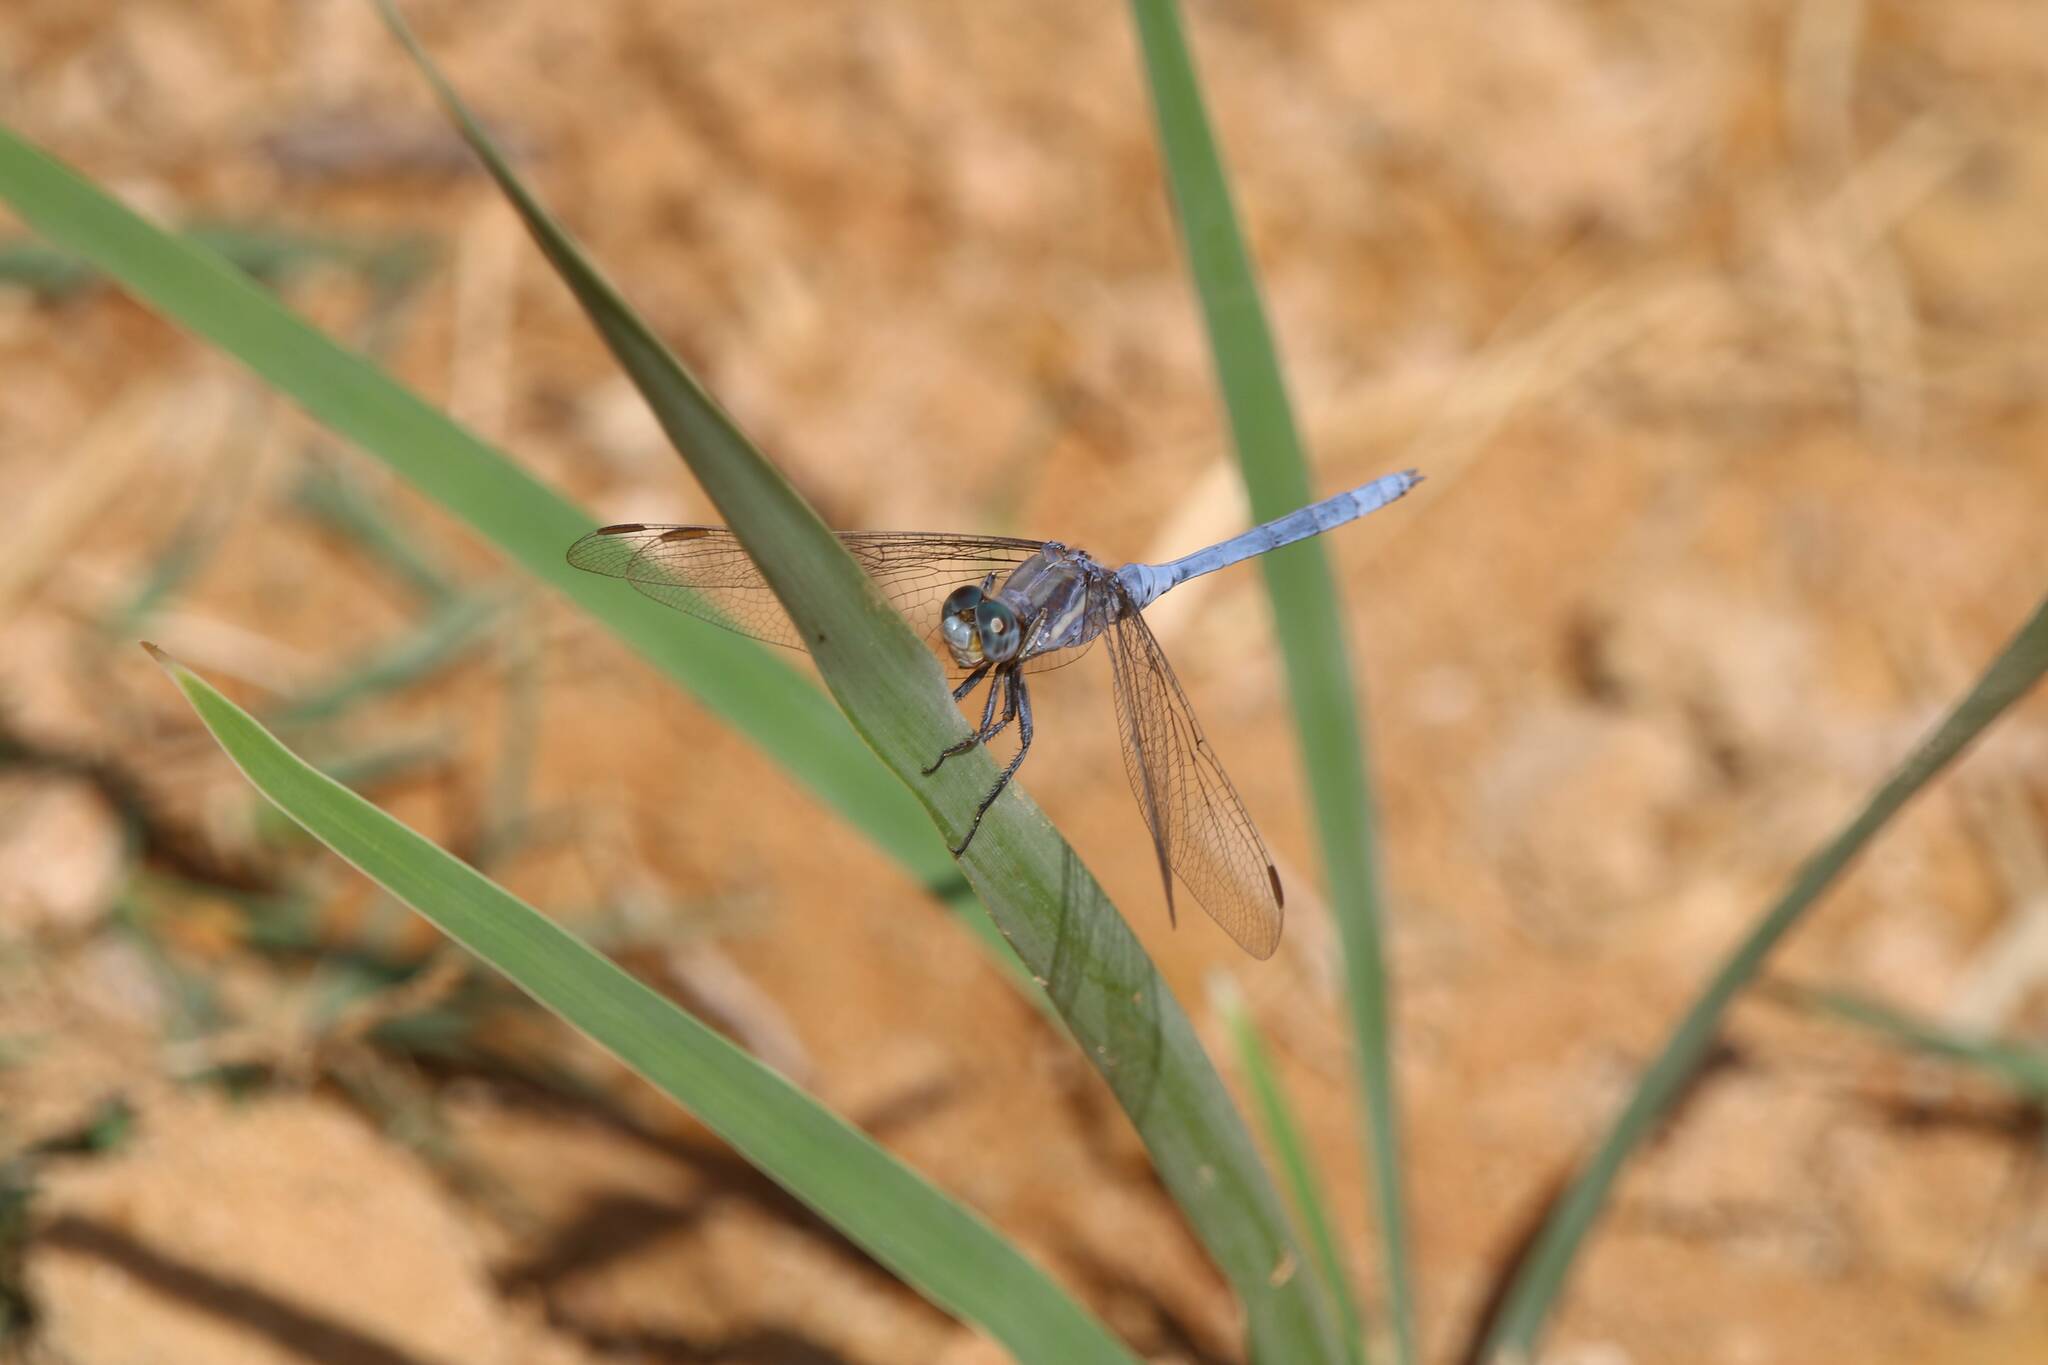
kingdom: Animalia
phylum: Arthropoda
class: Insecta
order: Odonata
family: Libellulidae
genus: Orthetrum
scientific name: Orthetrum chrysostigma
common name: Epaulet skimmer
